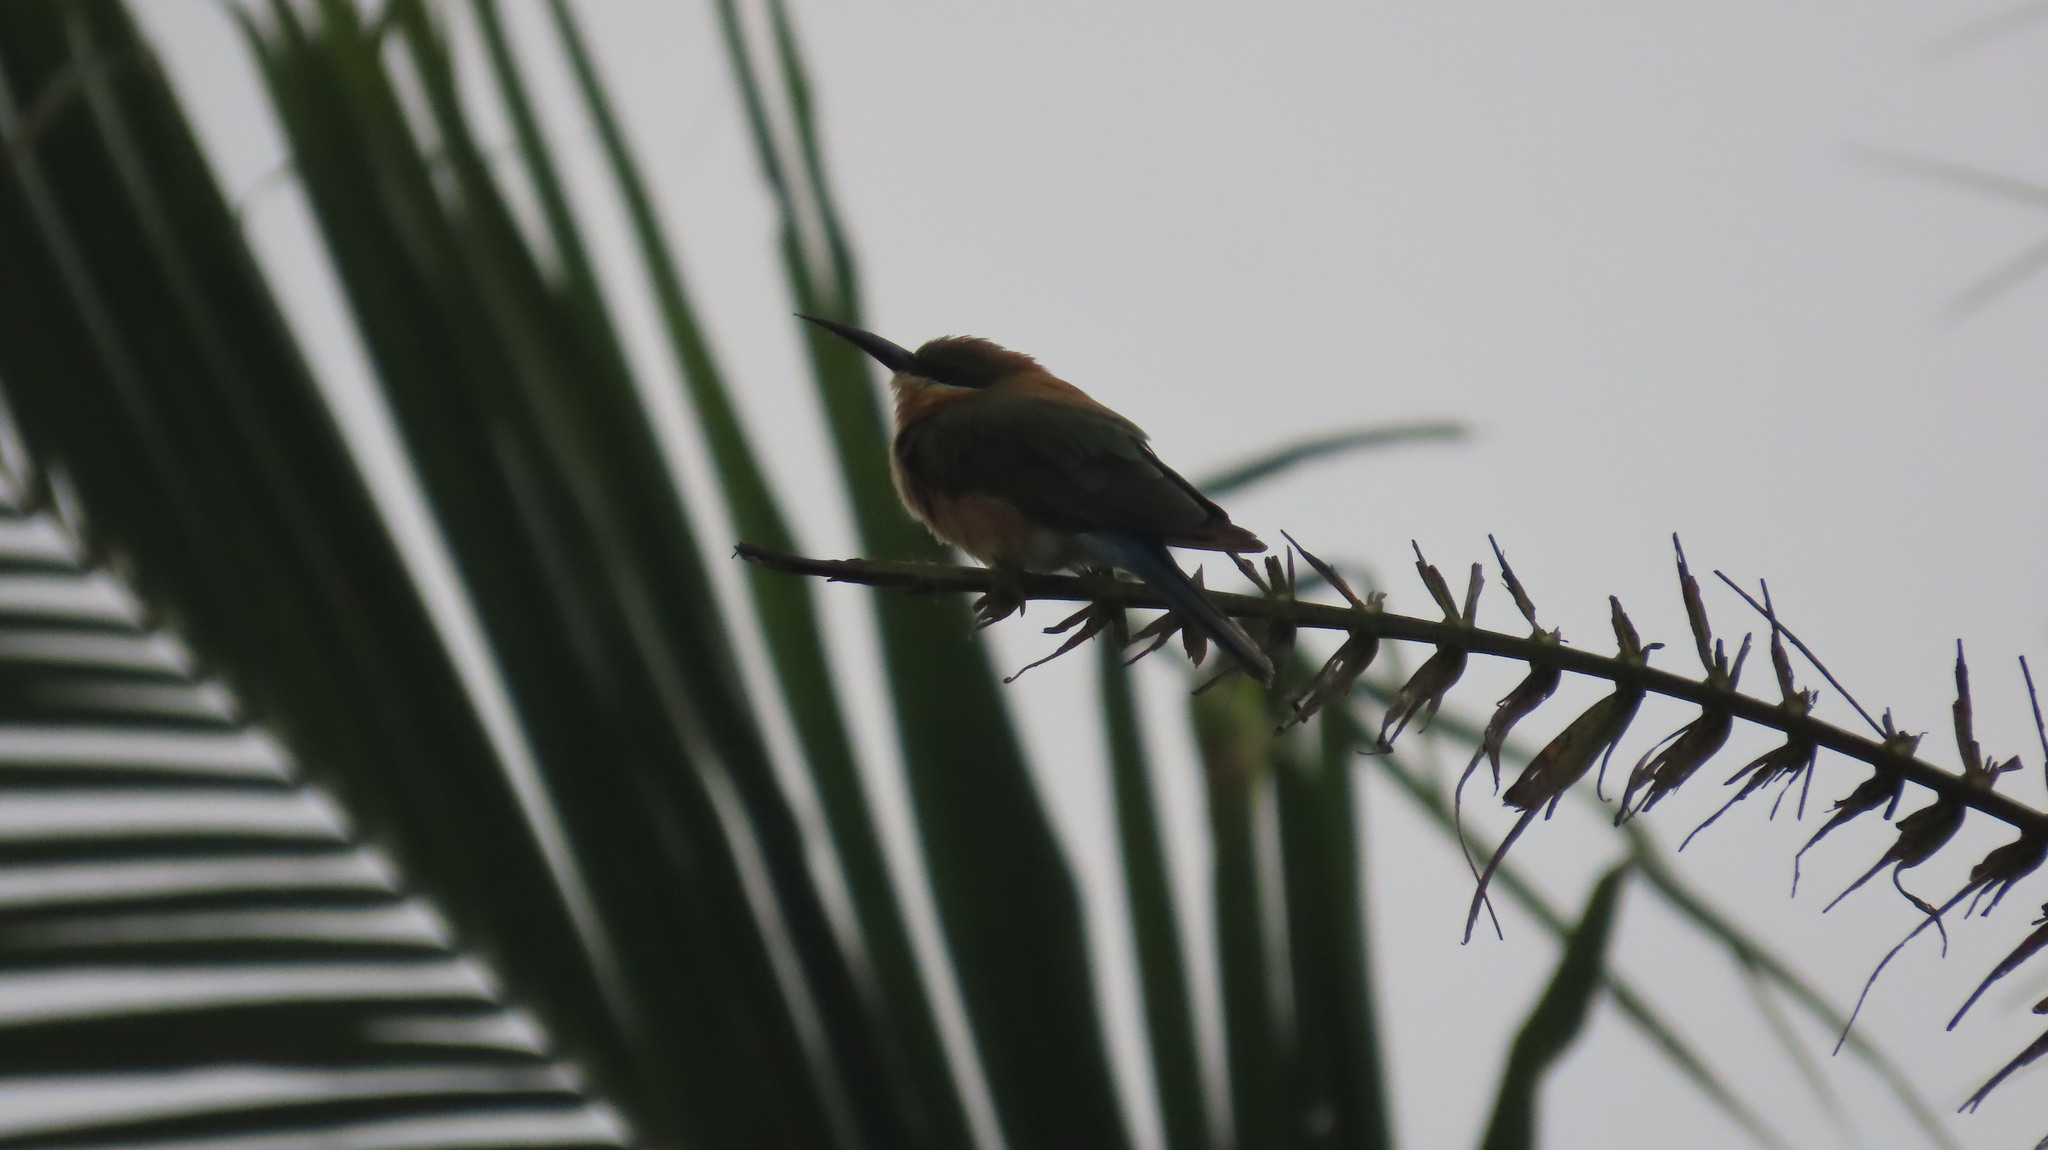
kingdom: Animalia
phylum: Chordata
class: Aves
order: Coraciiformes
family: Meropidae
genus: Merops
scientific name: Merops philippinus
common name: Blue-tailed bee-eater
